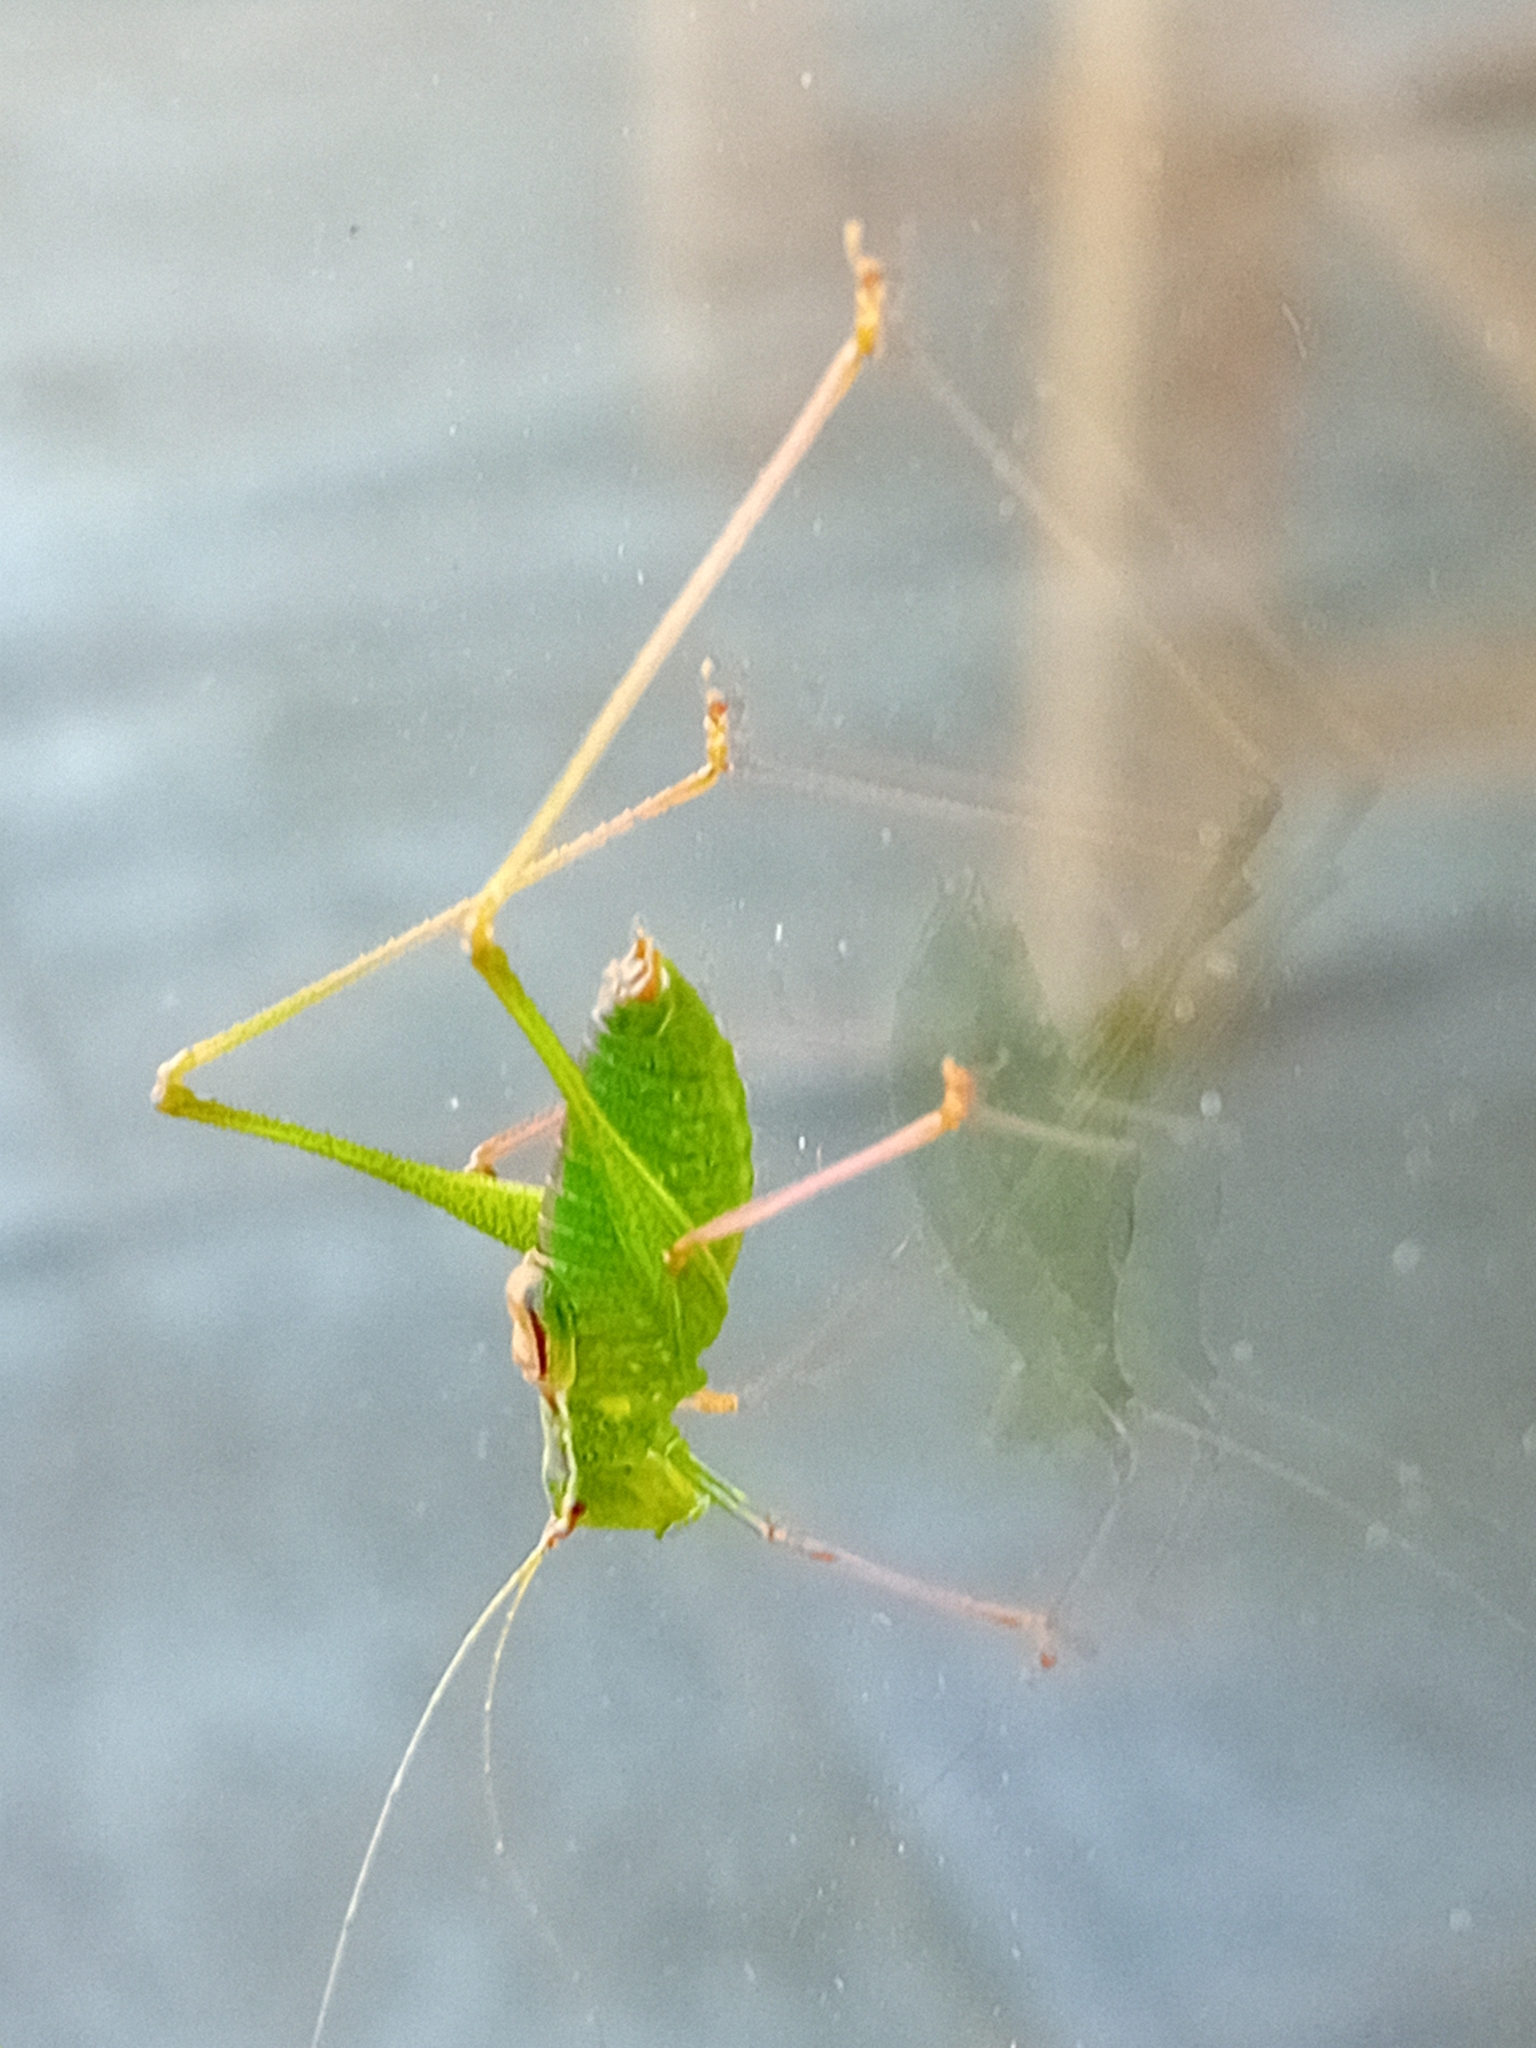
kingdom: Animalia
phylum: Arthropoda
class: Insecta
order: Orthoptera
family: Tettigoniidae
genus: Leptophyes
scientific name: Leptophyes punctatissima
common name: Speckled bush-cricket
